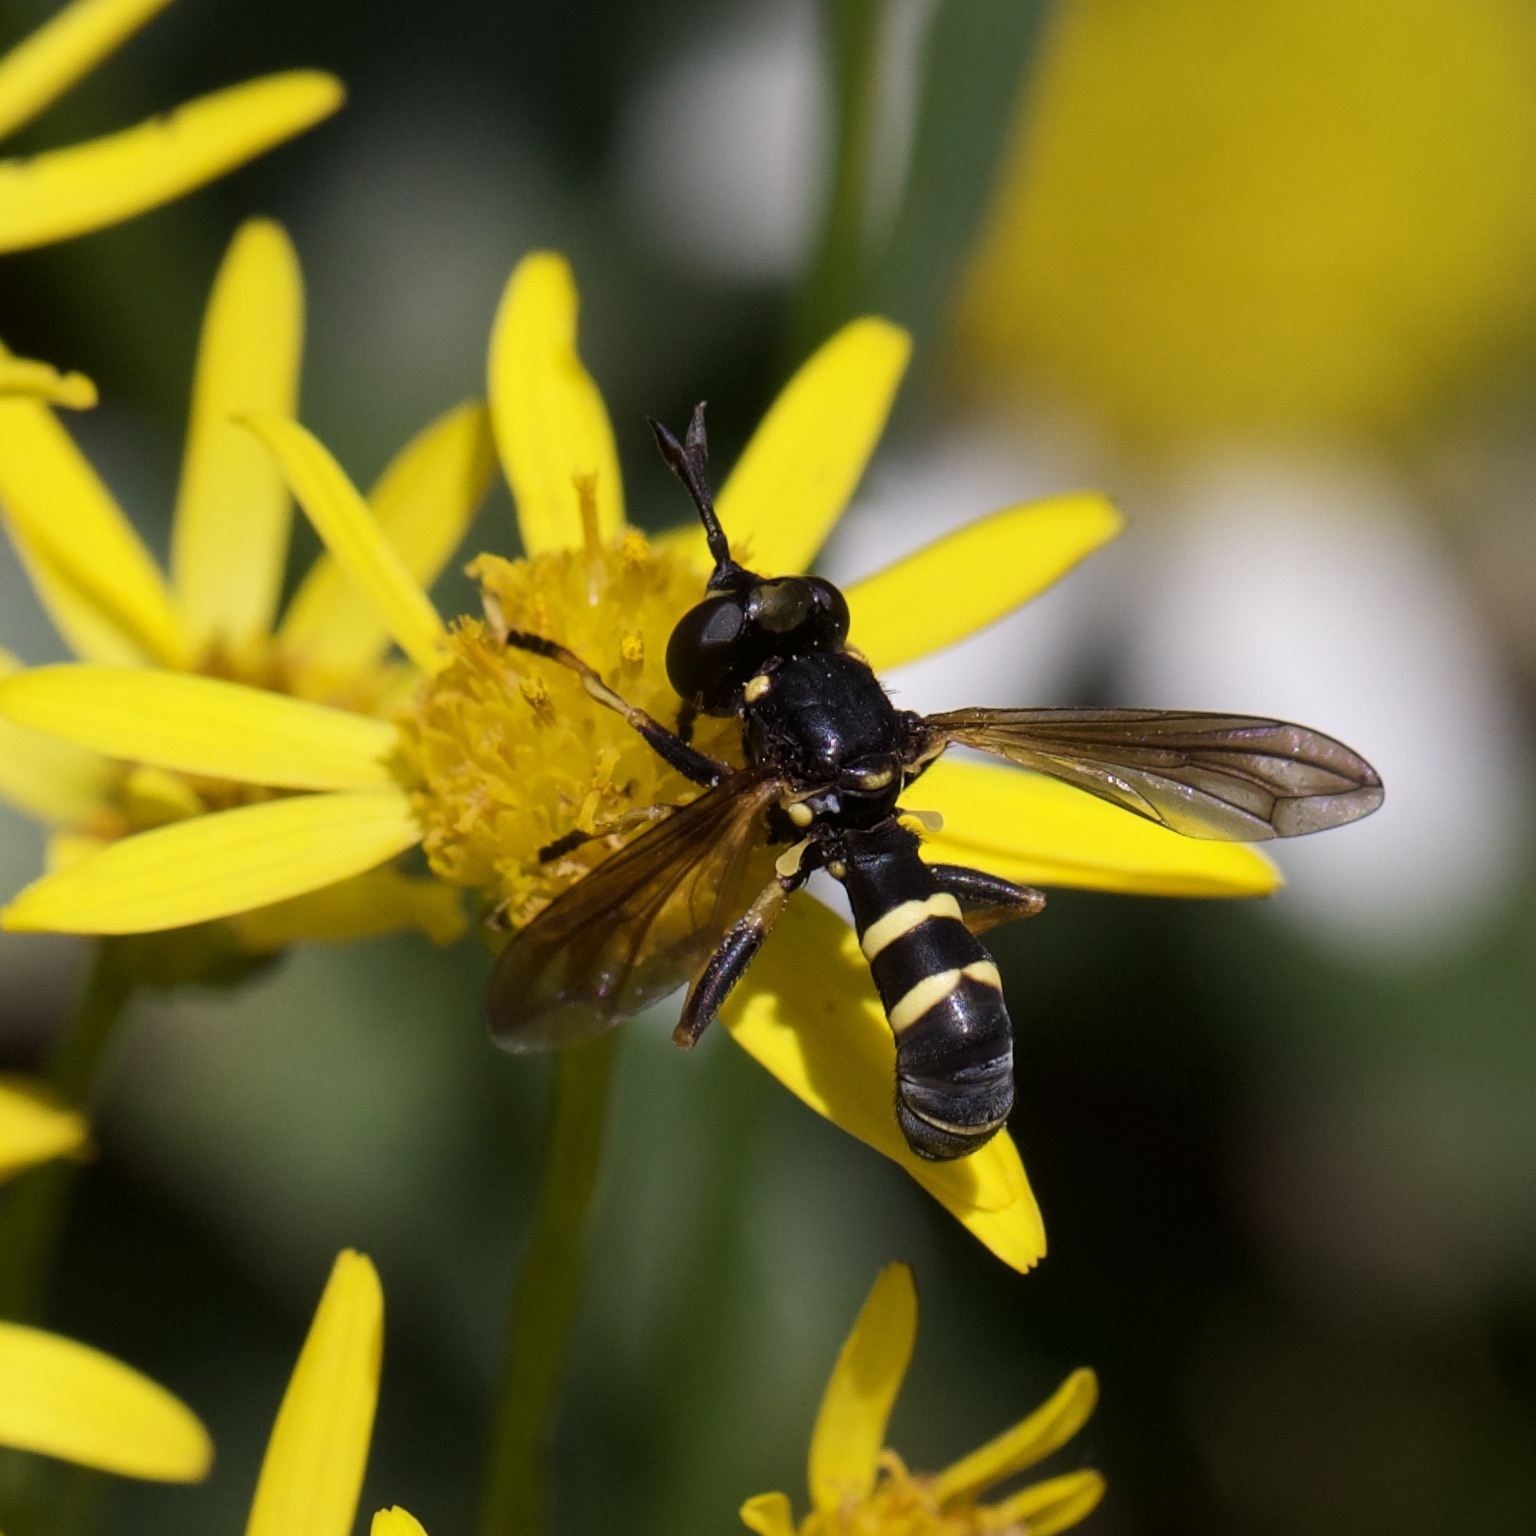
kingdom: Animalia
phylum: Arthropoda
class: Insecta
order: Diptera
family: Conopidae
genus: Conops
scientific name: Conops flavipes
